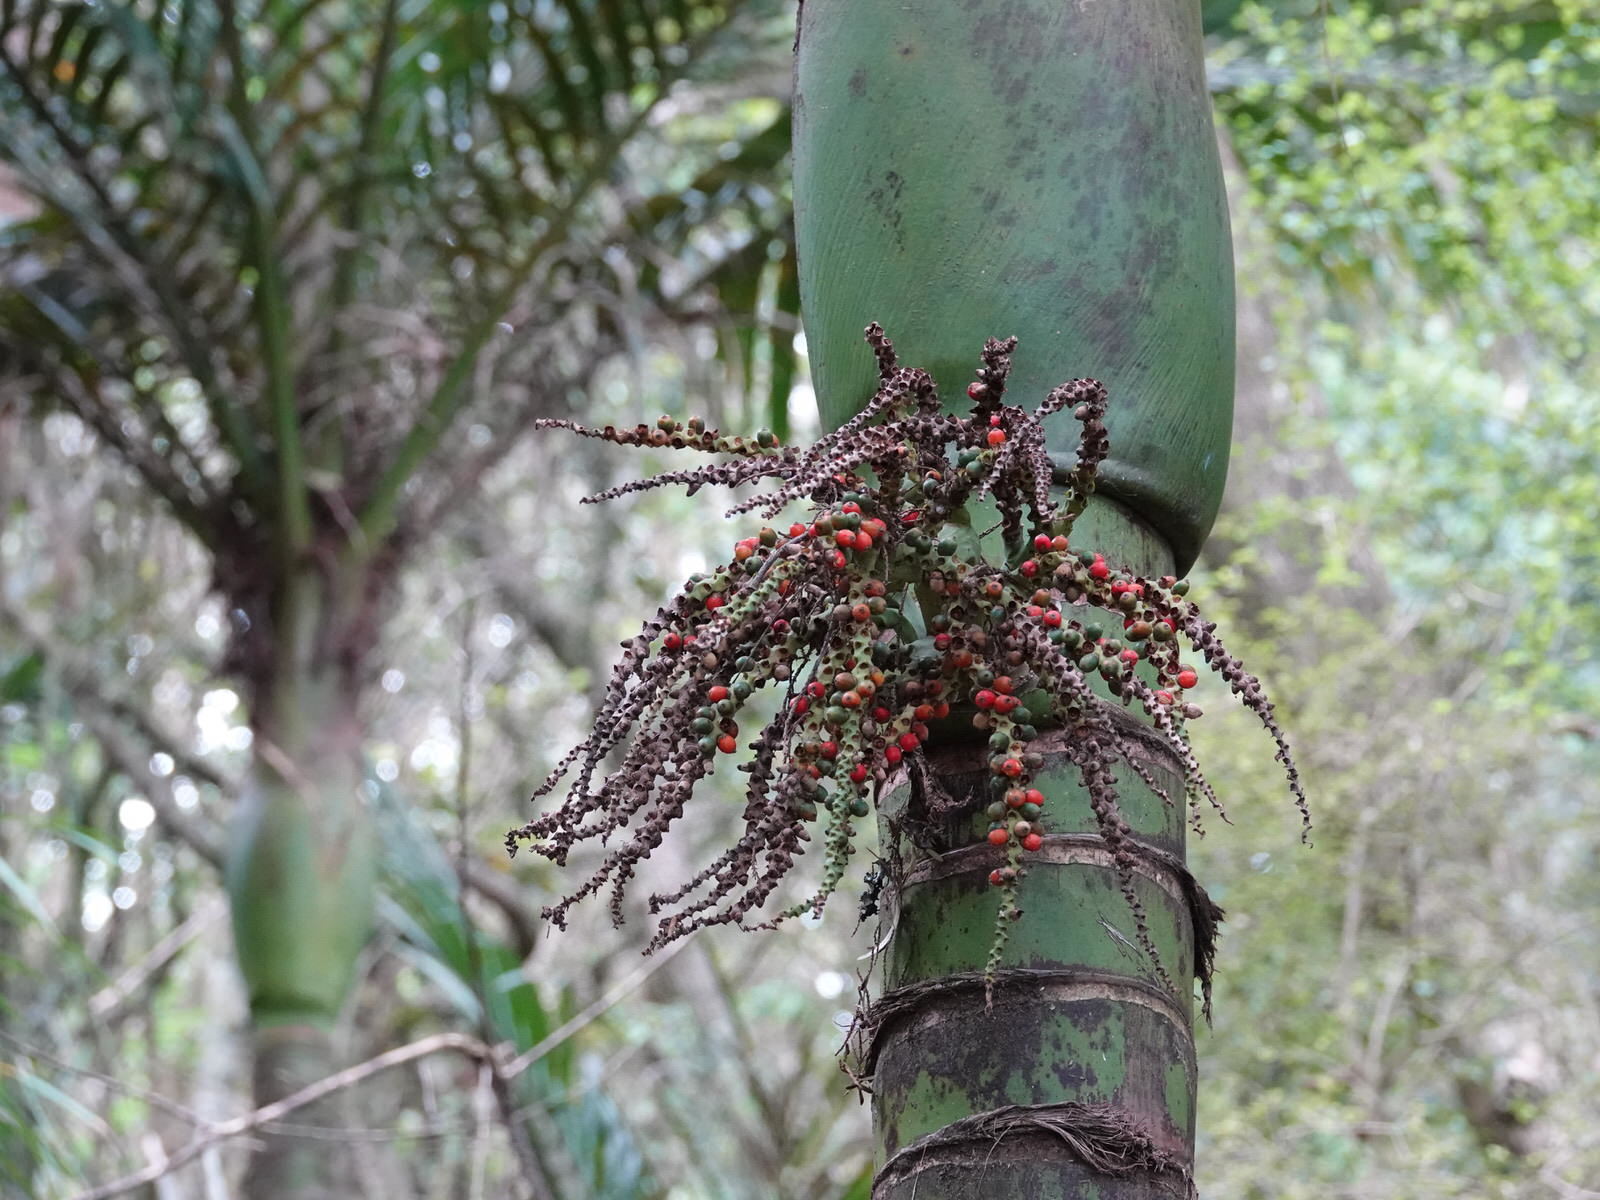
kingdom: Plantae
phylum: Tracheophyta
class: Liliopsida
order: Arecales
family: Arecaceae
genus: Rhopalostylis
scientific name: Rhopalostylis sapida
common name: Feather-duster palm
